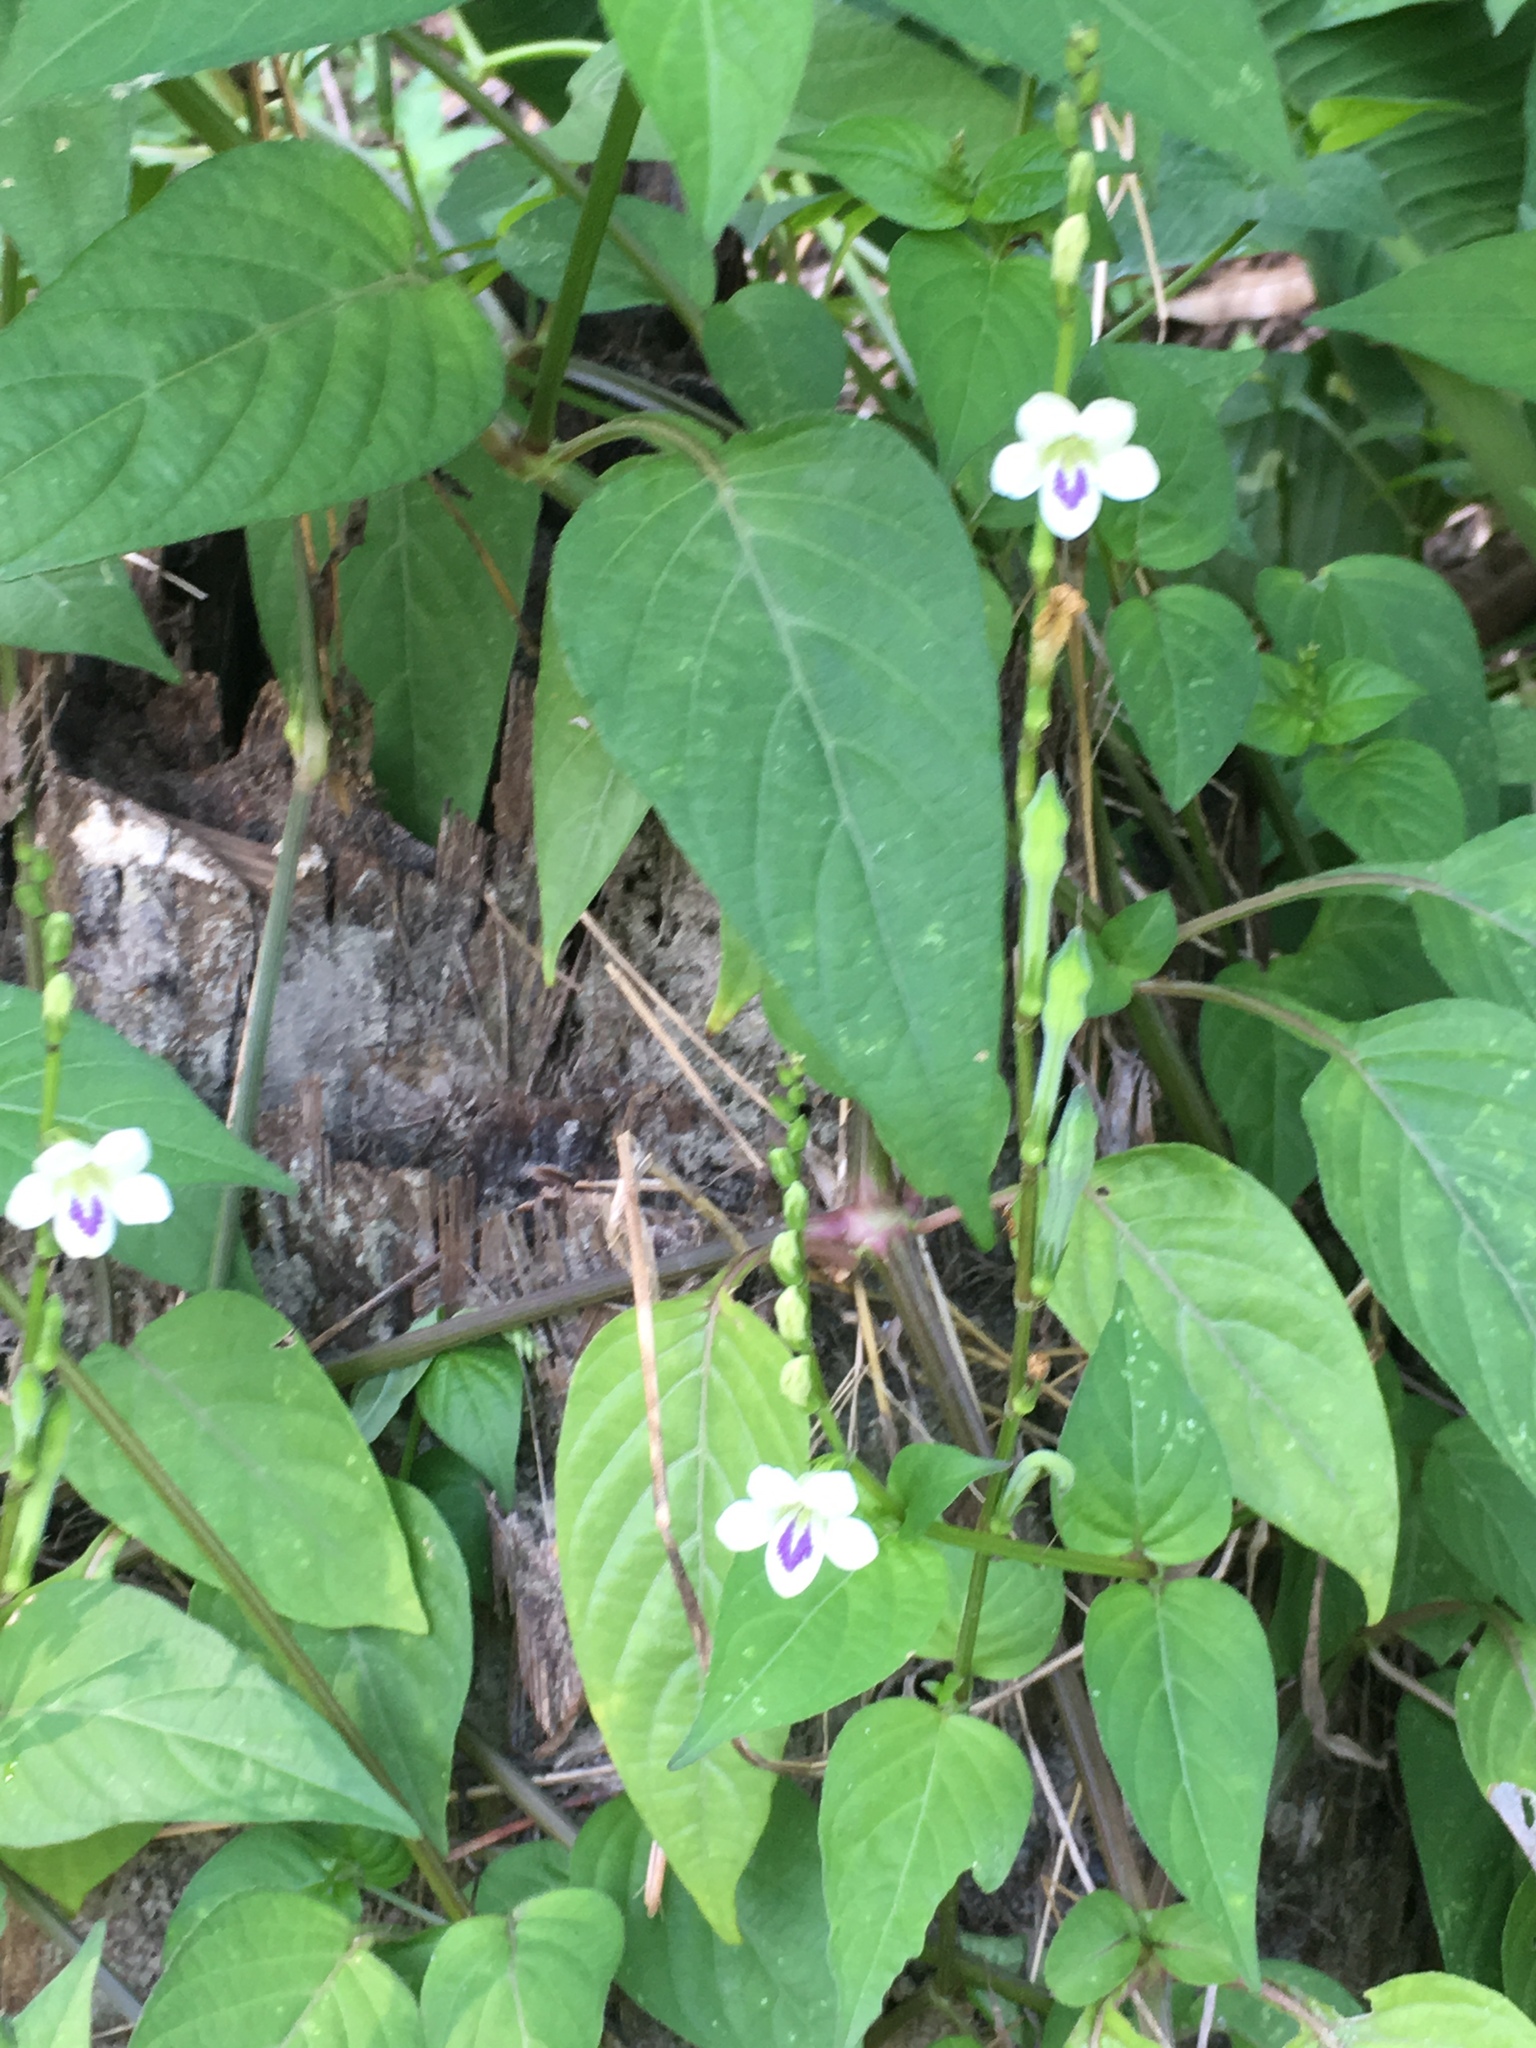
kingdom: Plantae
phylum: Tracheophyta
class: Magnoliopsida
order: Lamiales
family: Acanthaceae
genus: Asystasia
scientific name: Asystasia intrusa
